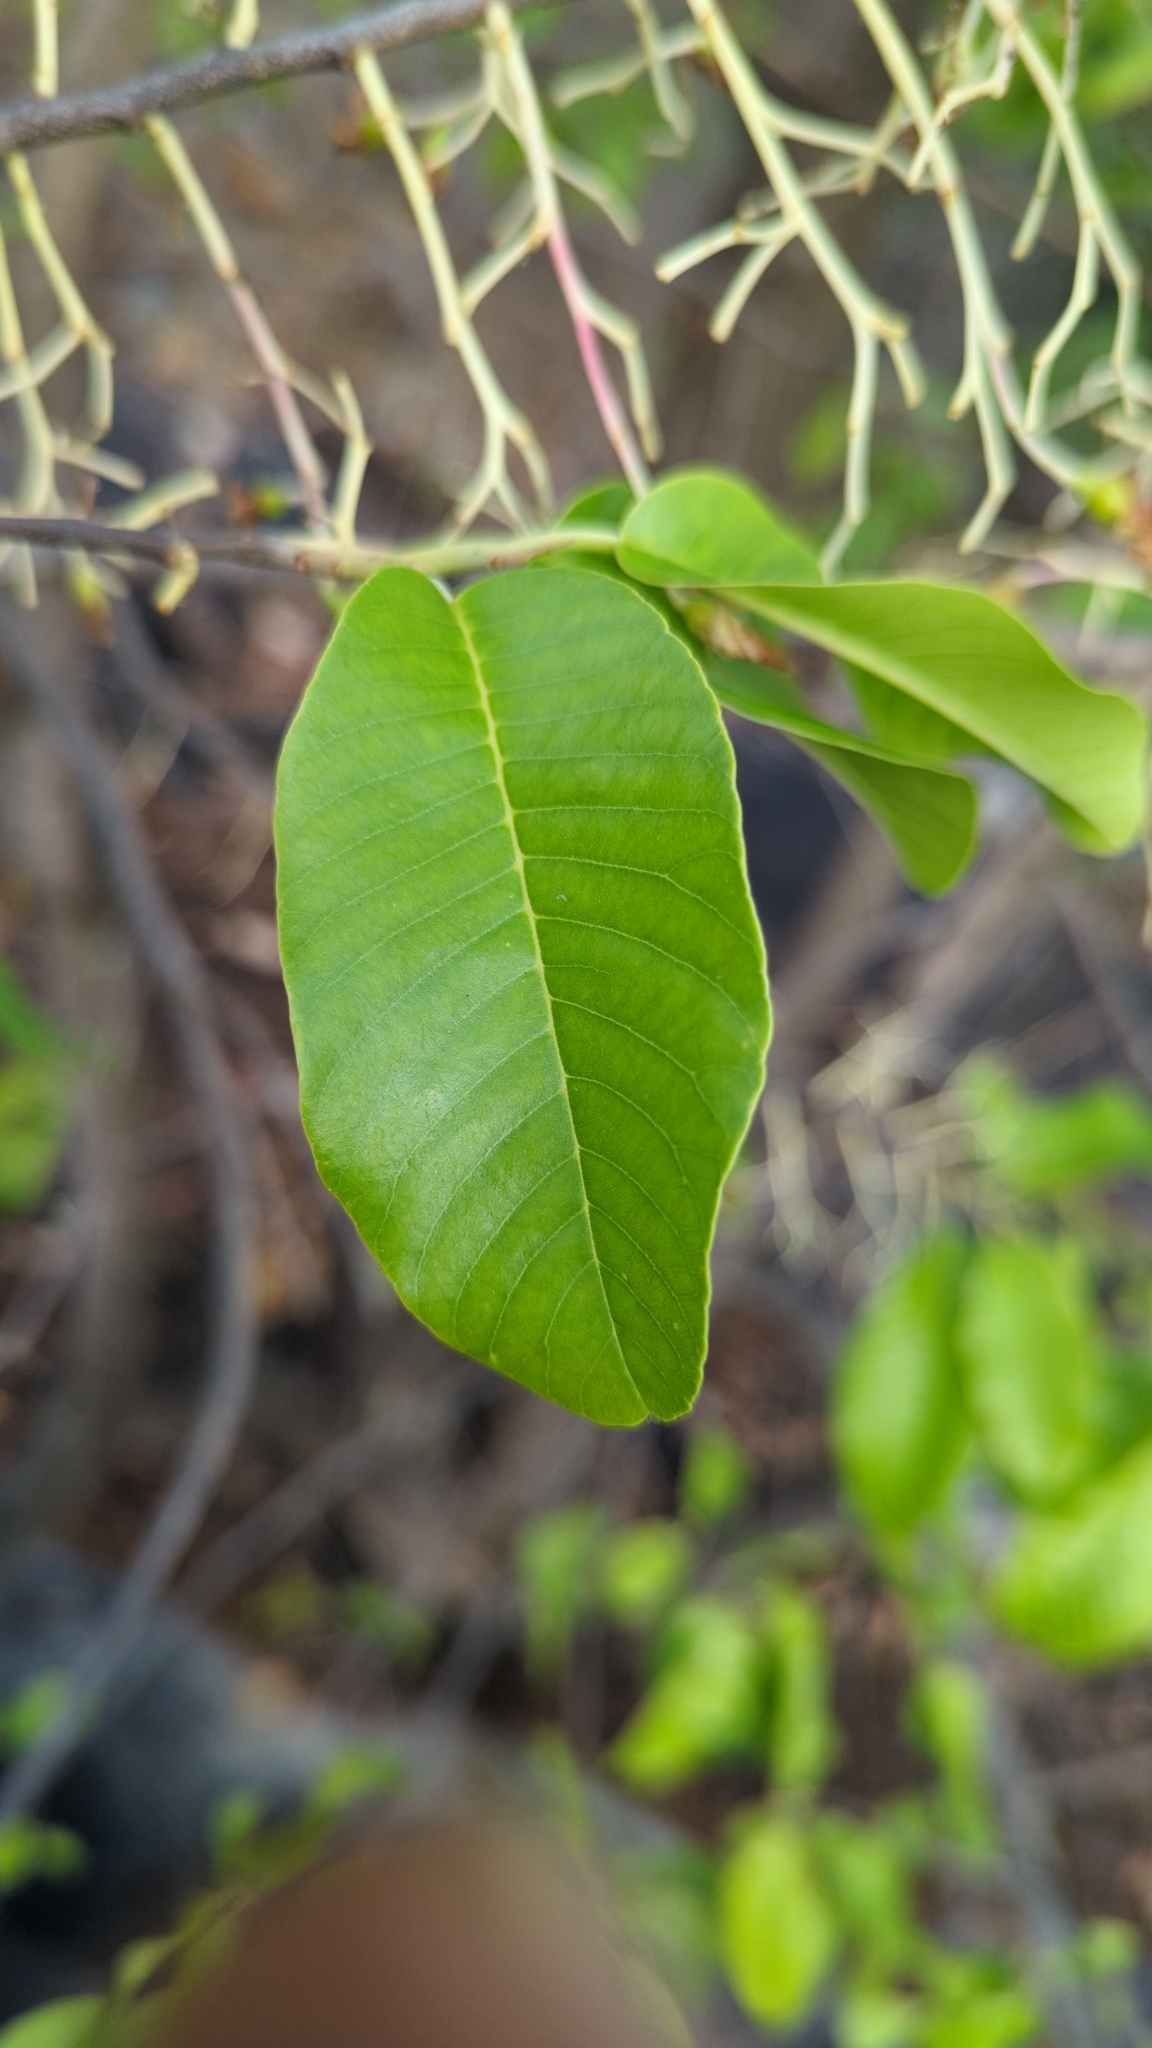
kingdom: Plantae
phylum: Tracheophyta
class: Magnoliopsida
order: Malvales
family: Dipterocarpaceae
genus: Anthoshorea
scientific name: Anthoshorea roxburghii
